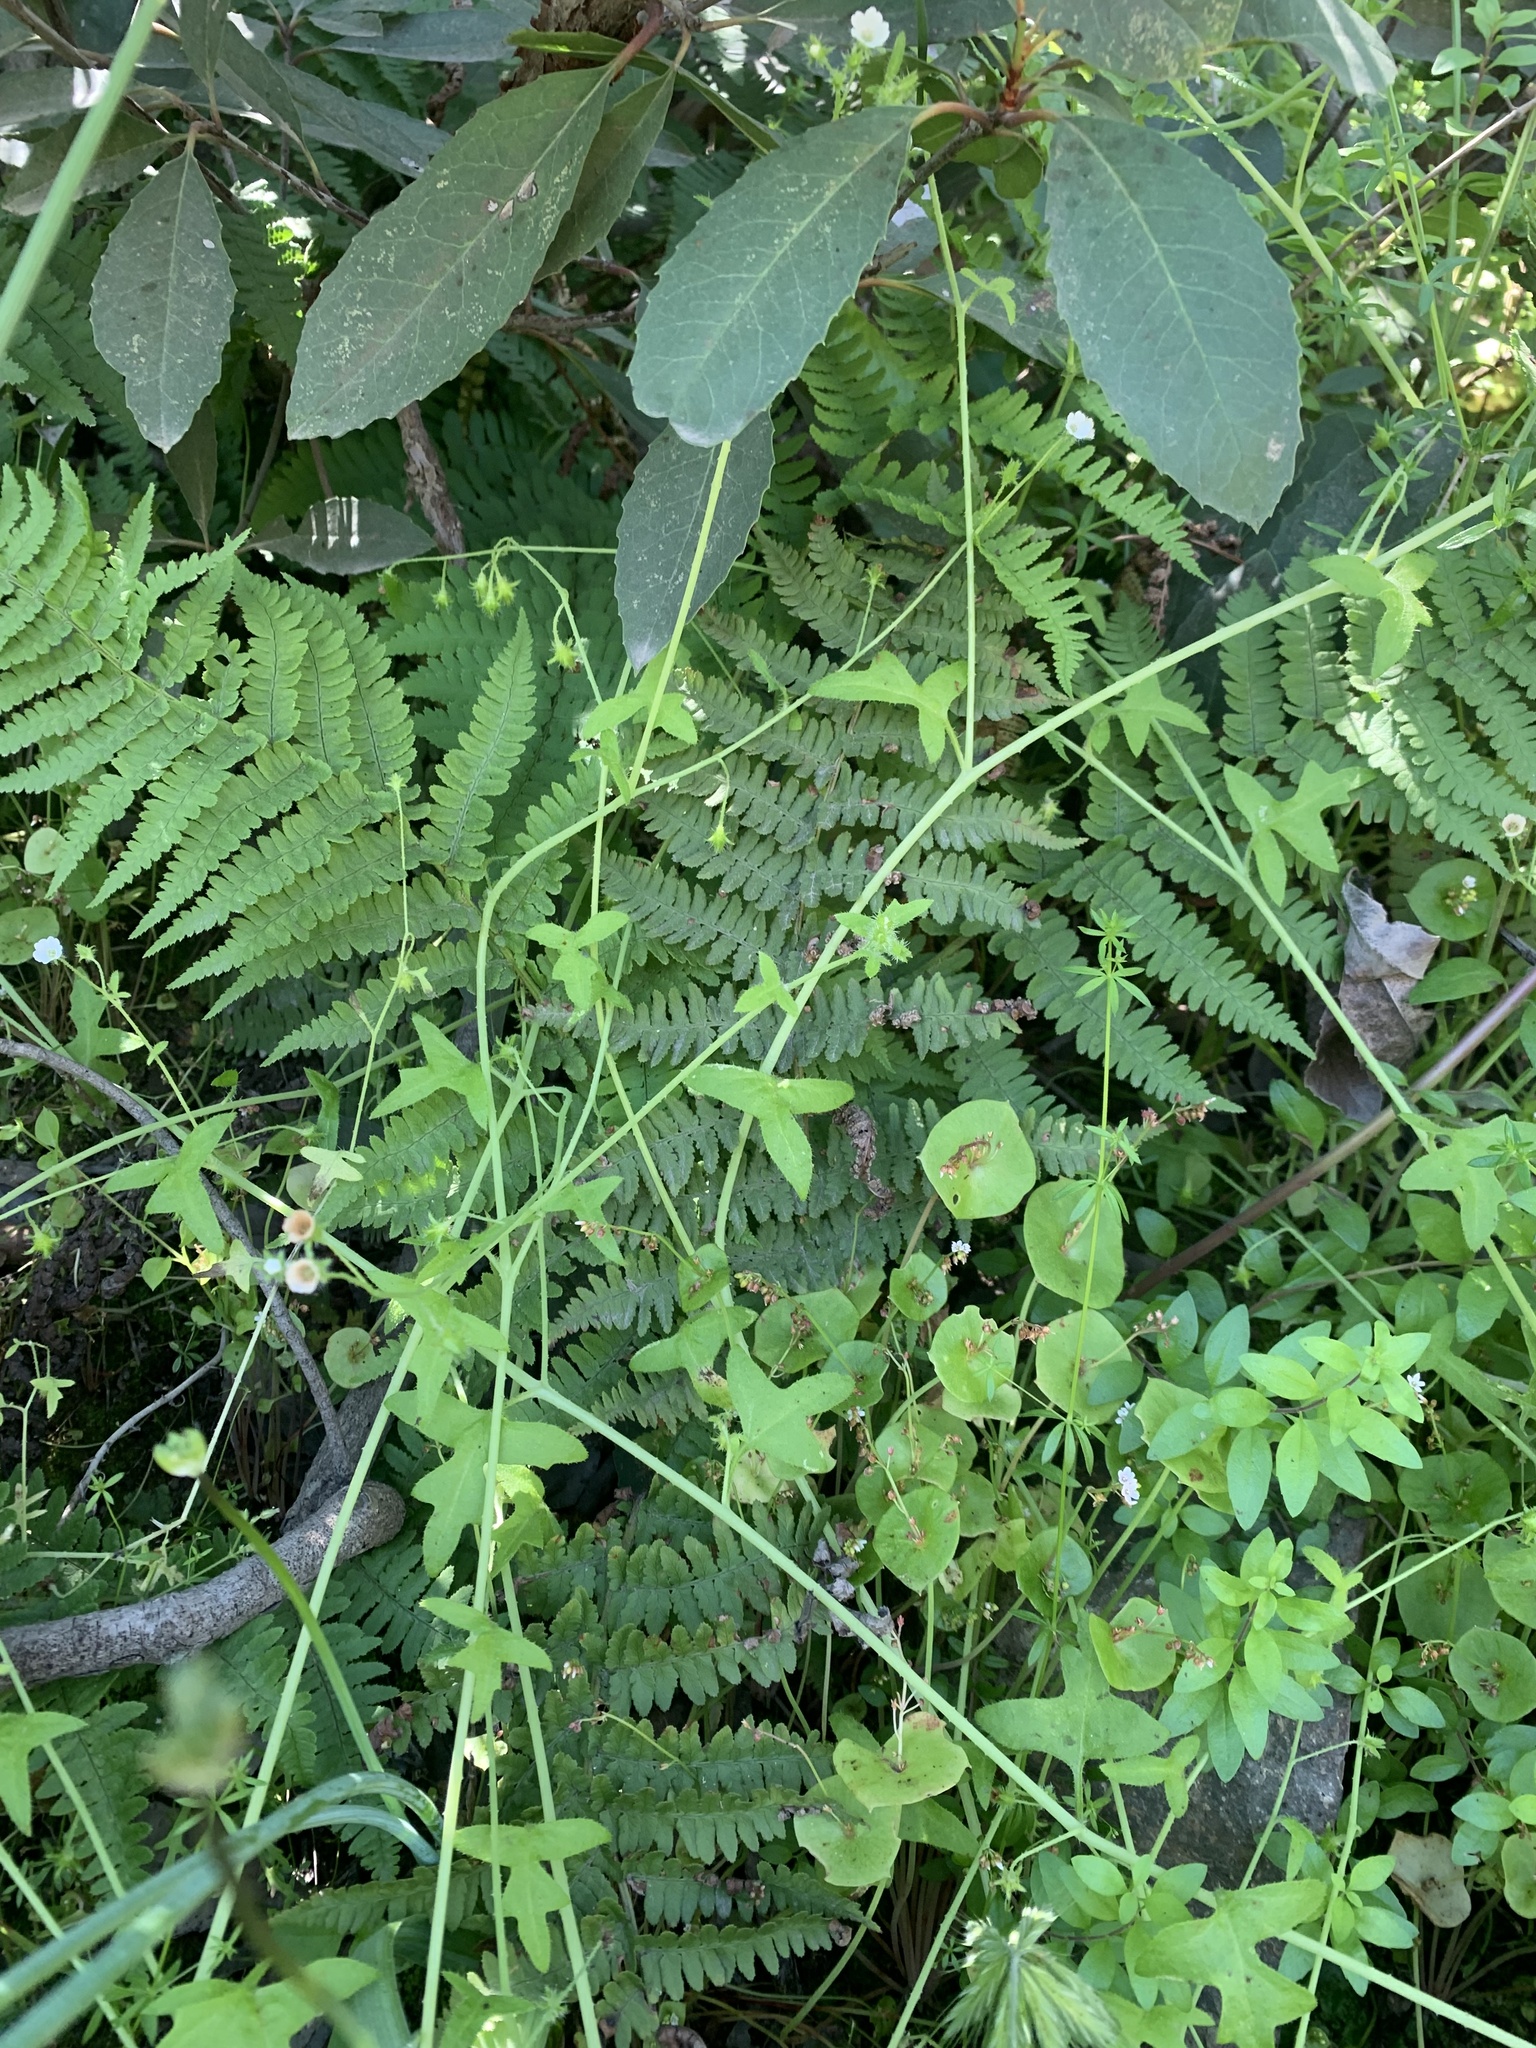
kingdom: Plantae
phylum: Tracheophyta
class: Polypodiopsida
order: Polypodiales
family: Dryopteridaceae
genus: Dryopteris
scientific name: Dryopteris arguta
